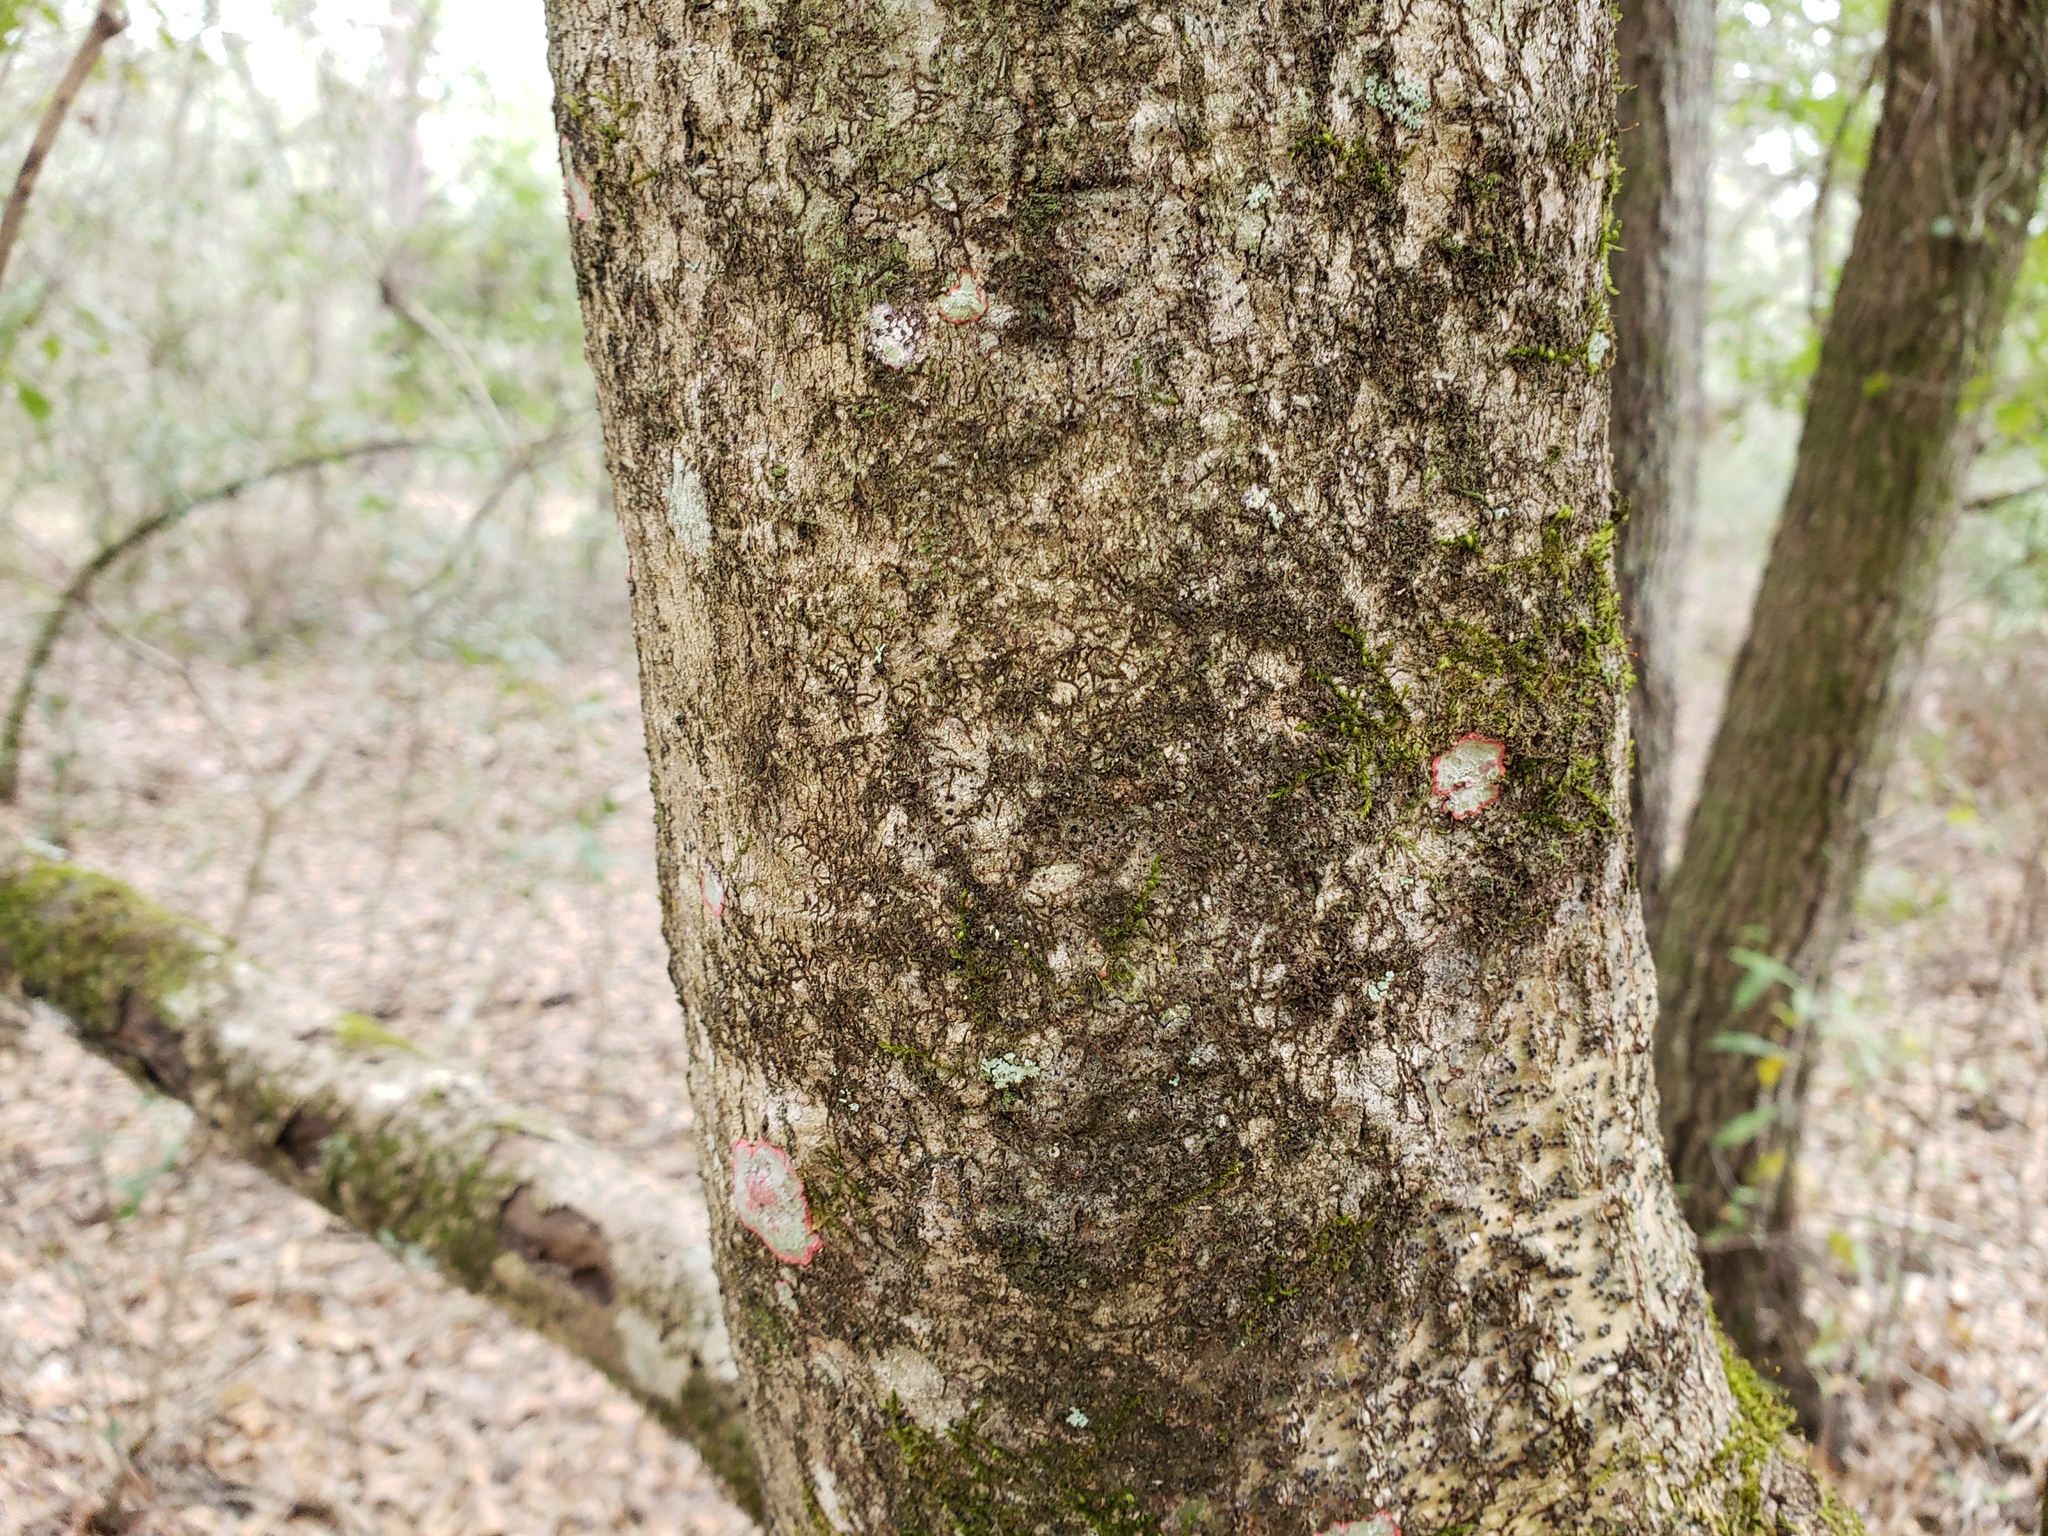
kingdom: Plantae
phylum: Tracheophyta
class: Magnoliopsida
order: Aquifoliales
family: Aquifoliaceae
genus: Ilex
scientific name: Ilex cassine
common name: Dahoon
